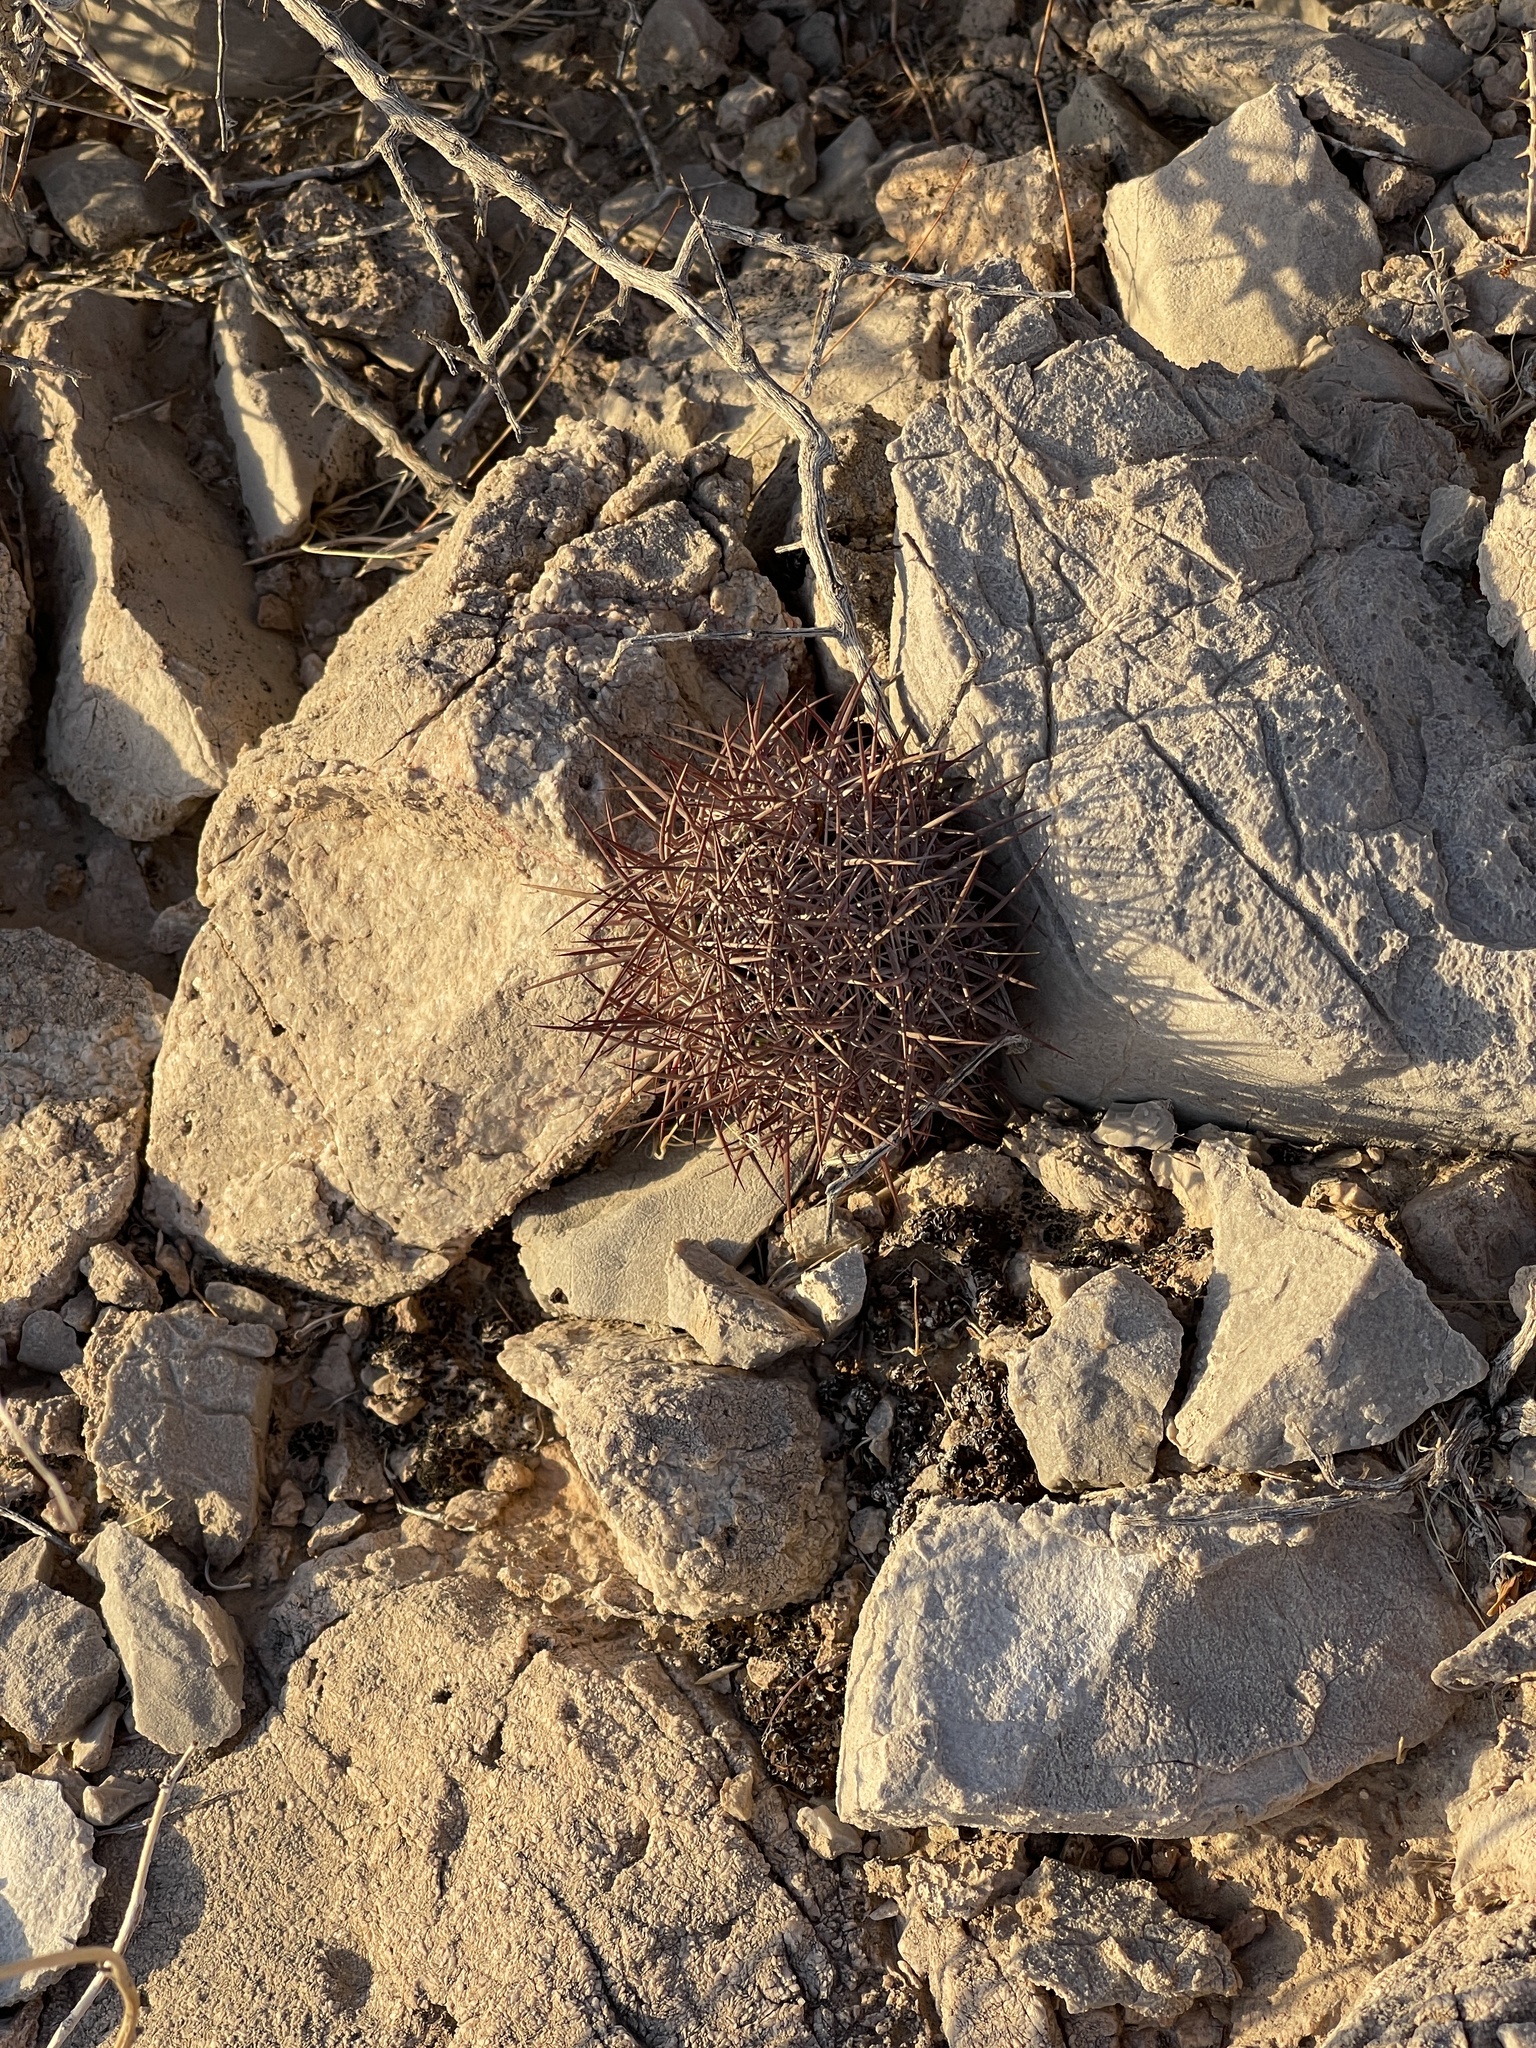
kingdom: Plantae
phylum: Tracheophyta
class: Magnoliopsida
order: Caryophyllales
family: Cactaceae
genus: Sclerocactus
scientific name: Sclerocactus johnsonii
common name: Eight-spine fishhook cactus
